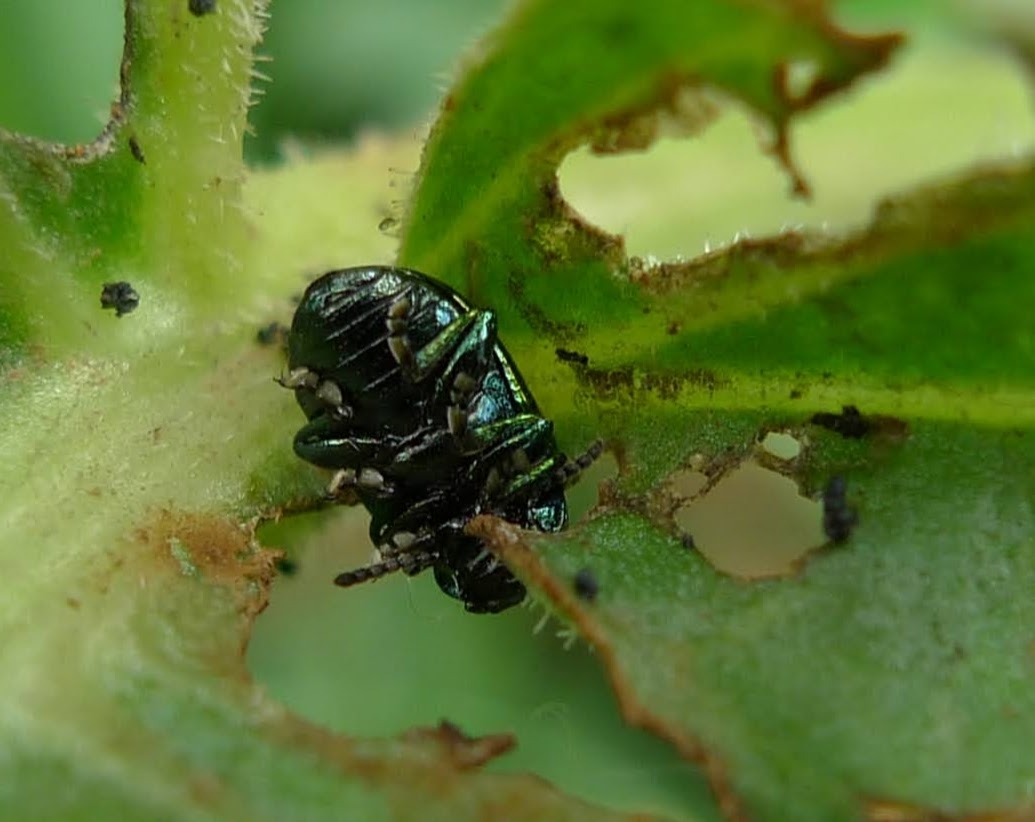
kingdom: Animalia
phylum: Arthropoda
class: Insecta
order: Coleoptera
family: Chrysomelidae
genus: Gastrophysa
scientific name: Gastrophysa viridula
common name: Green dock beetle
